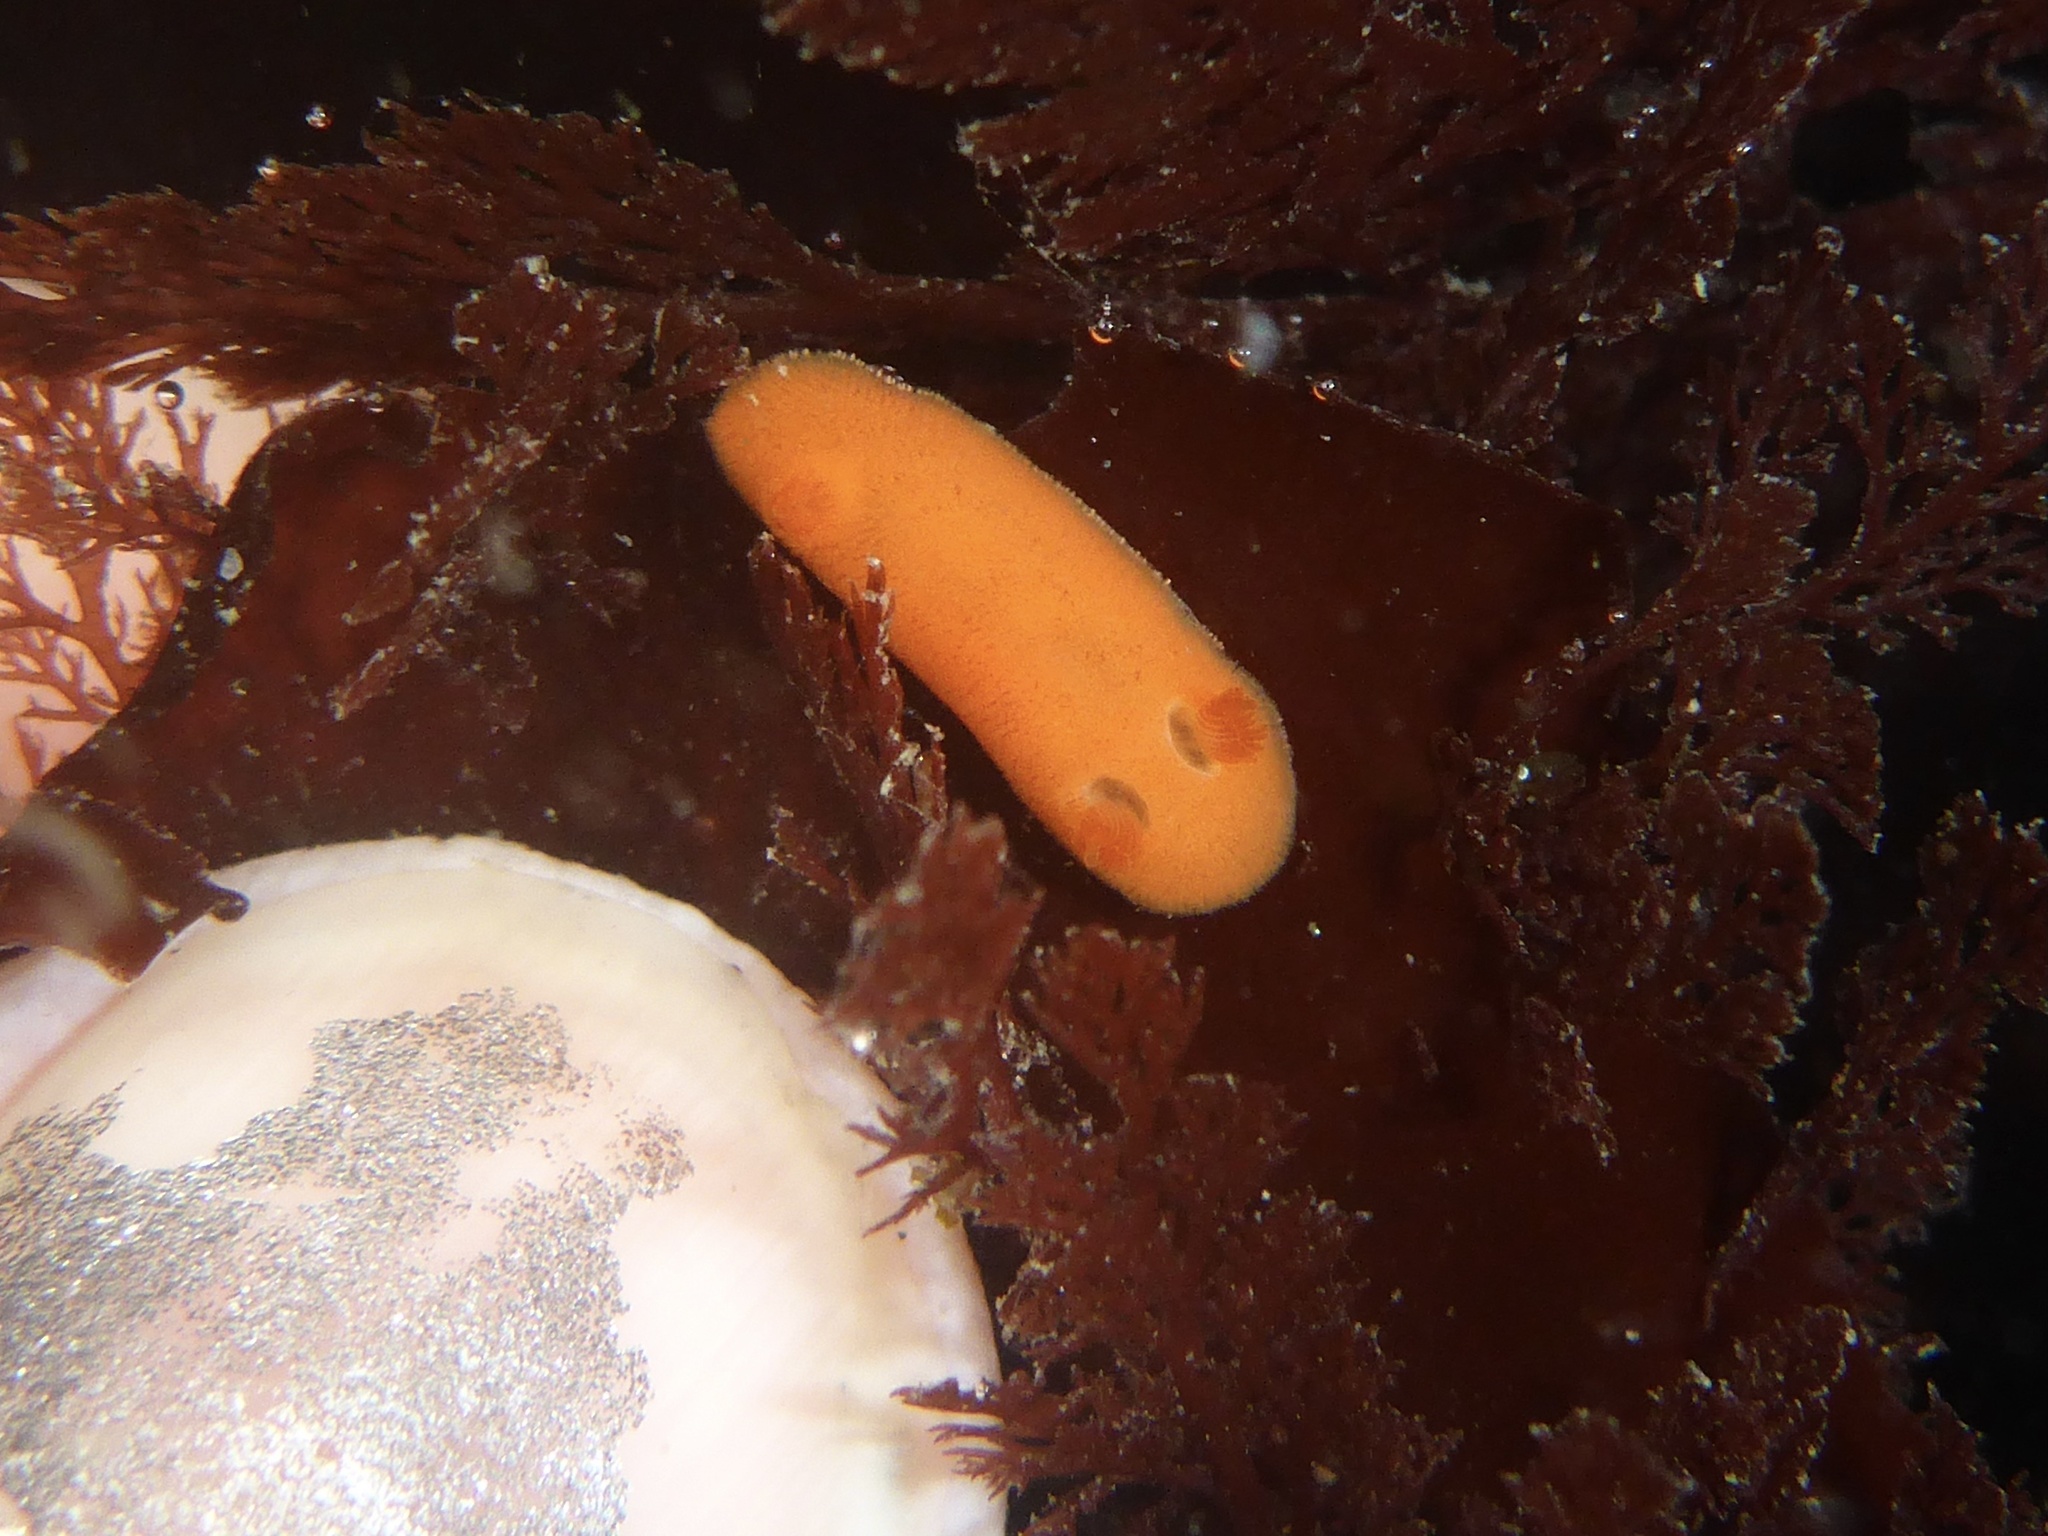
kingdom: Animalia
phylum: Mollusca
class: Gastropoda
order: Nudibranchia
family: Discodorididae
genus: Rostanga
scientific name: Rostanga pulchra
